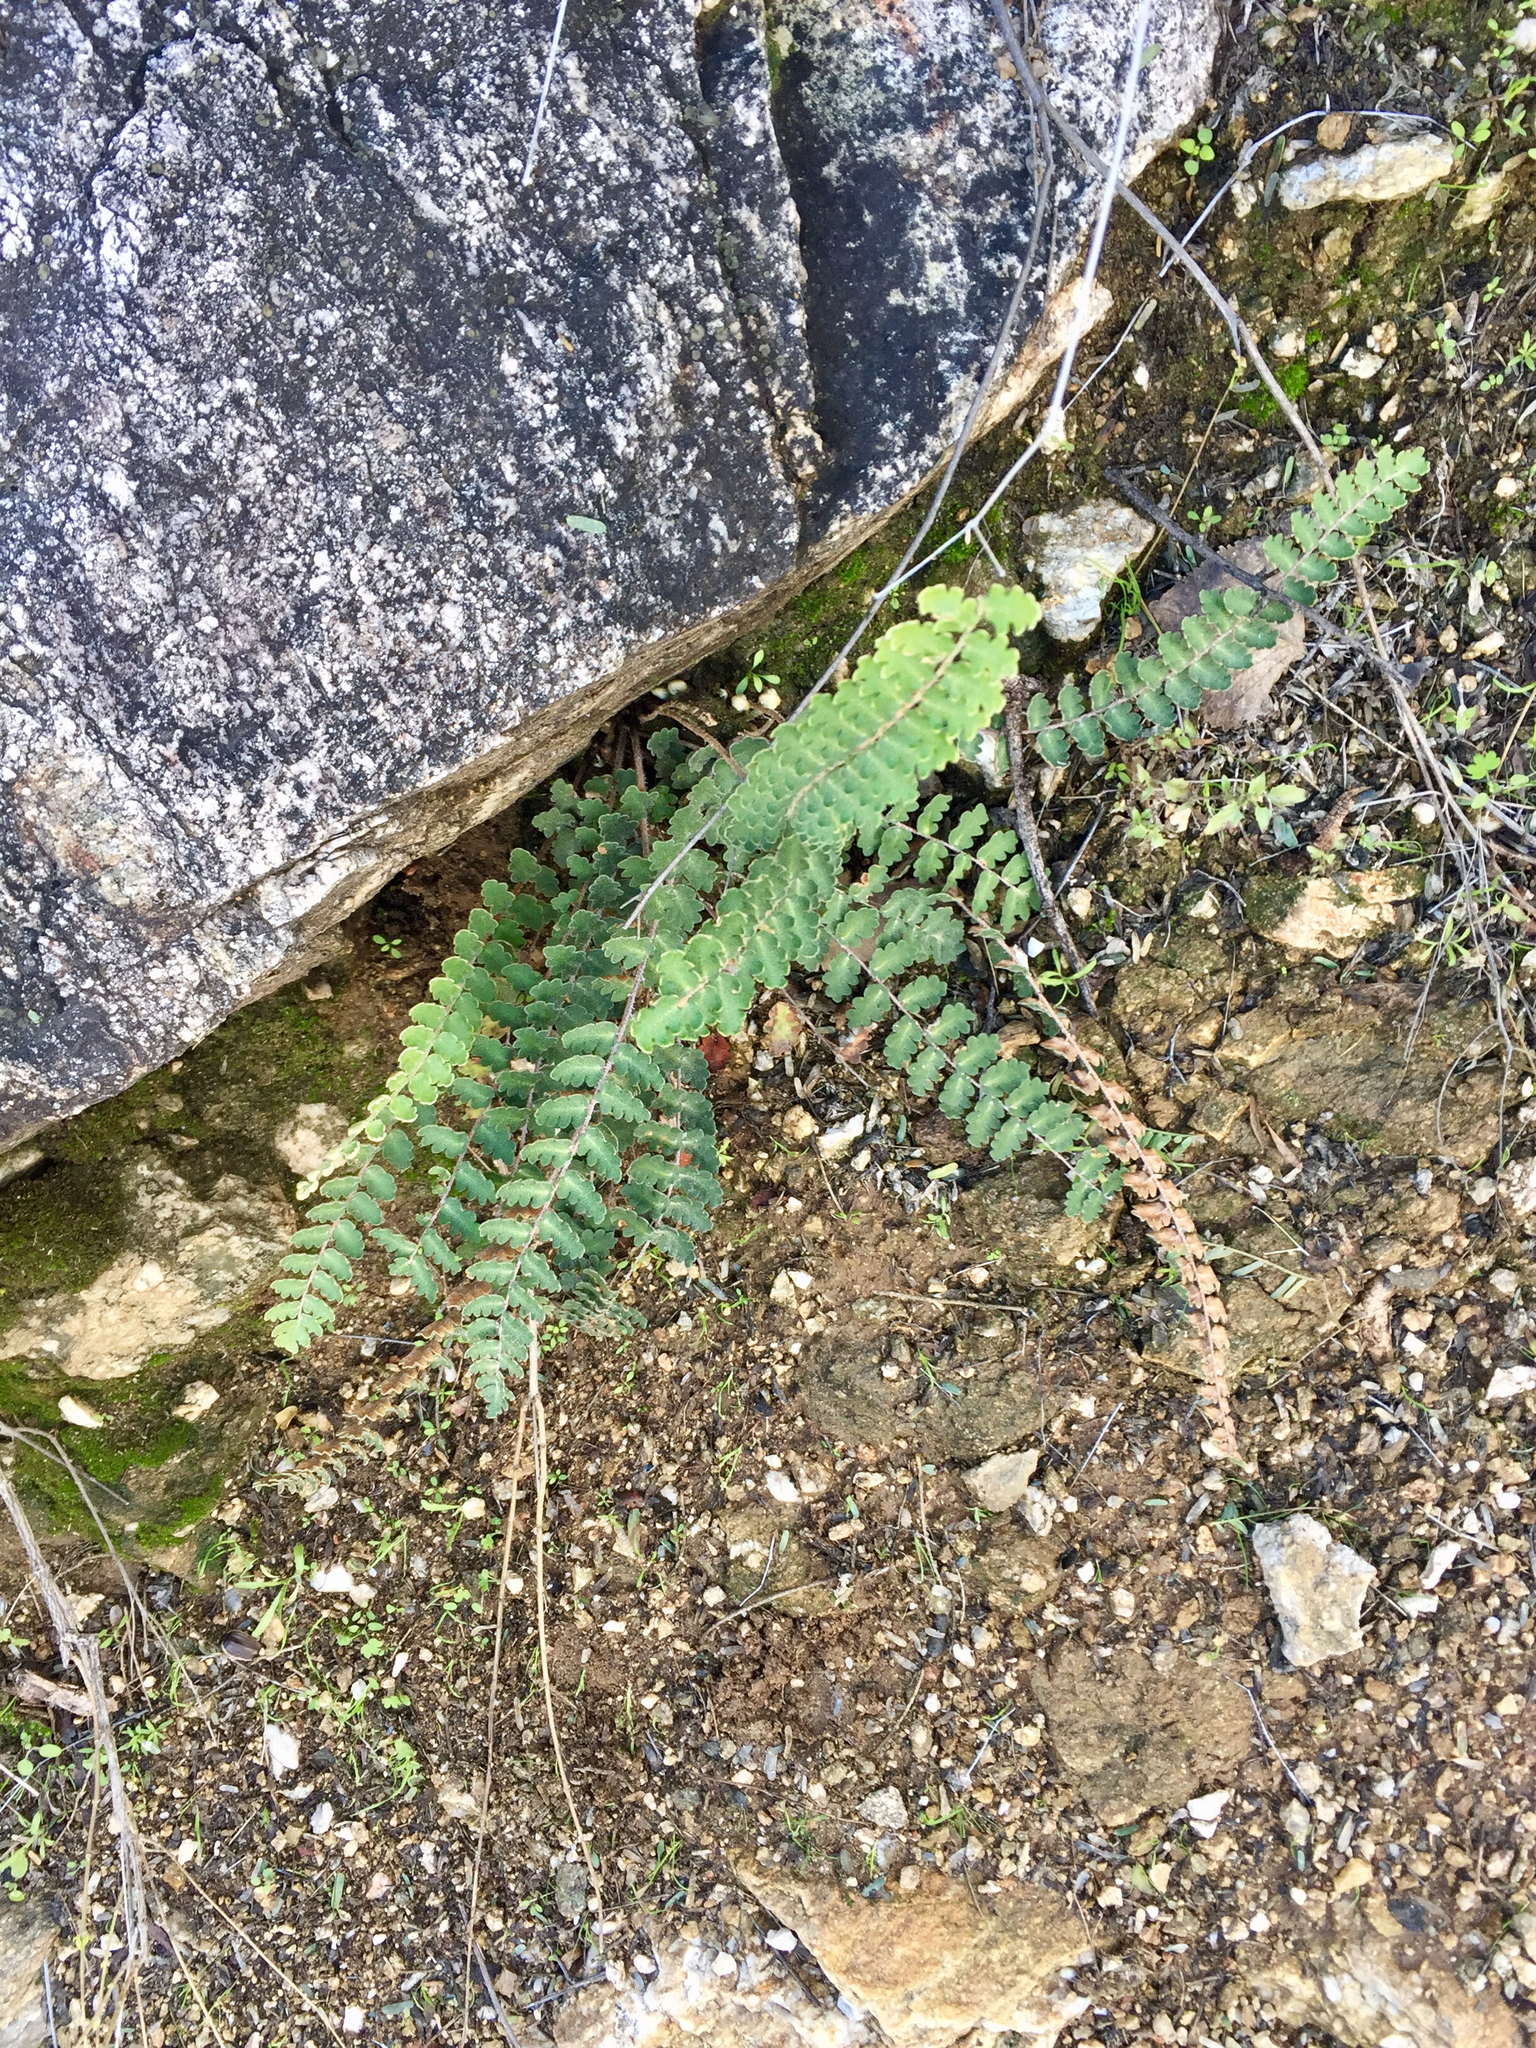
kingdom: Plantae
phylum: Tracheophyta
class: Polypodiopsida
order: Polypodiales
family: Pteridaceae
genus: Astrolepis
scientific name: Astrolepis sinuata
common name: Wavy scaly cloakfern
